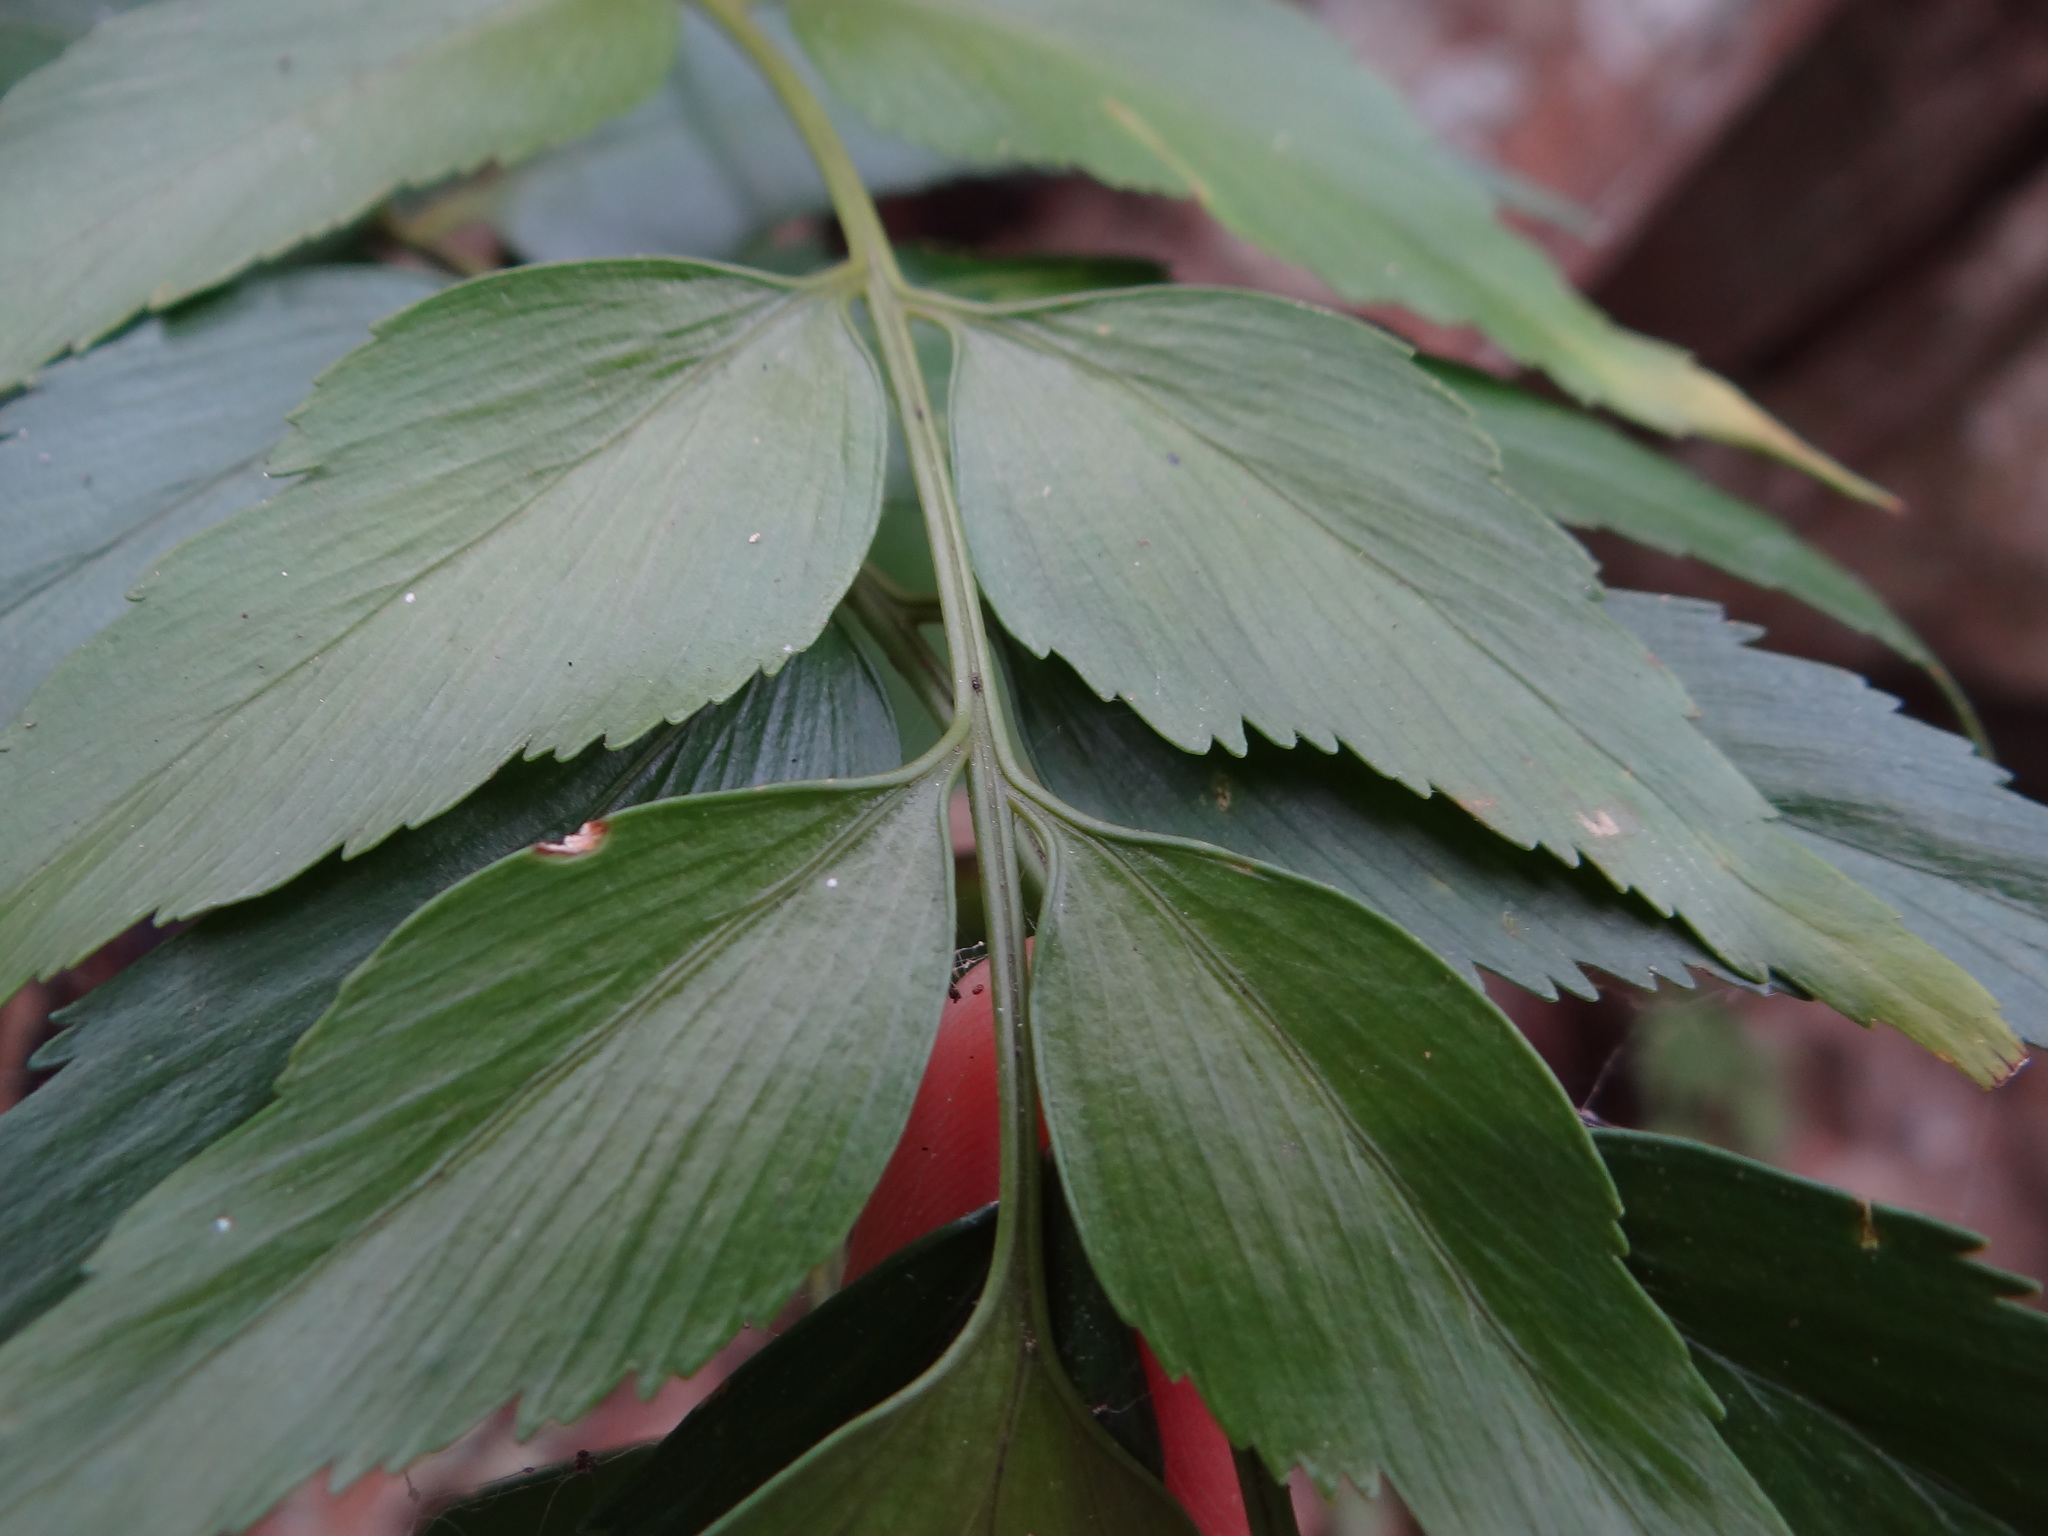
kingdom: Plantae
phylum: Tracheophyta
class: Polypodiopsida
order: Polypodiales
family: Aspleniaceae
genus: Asplenium
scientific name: Asplenium falcatum
